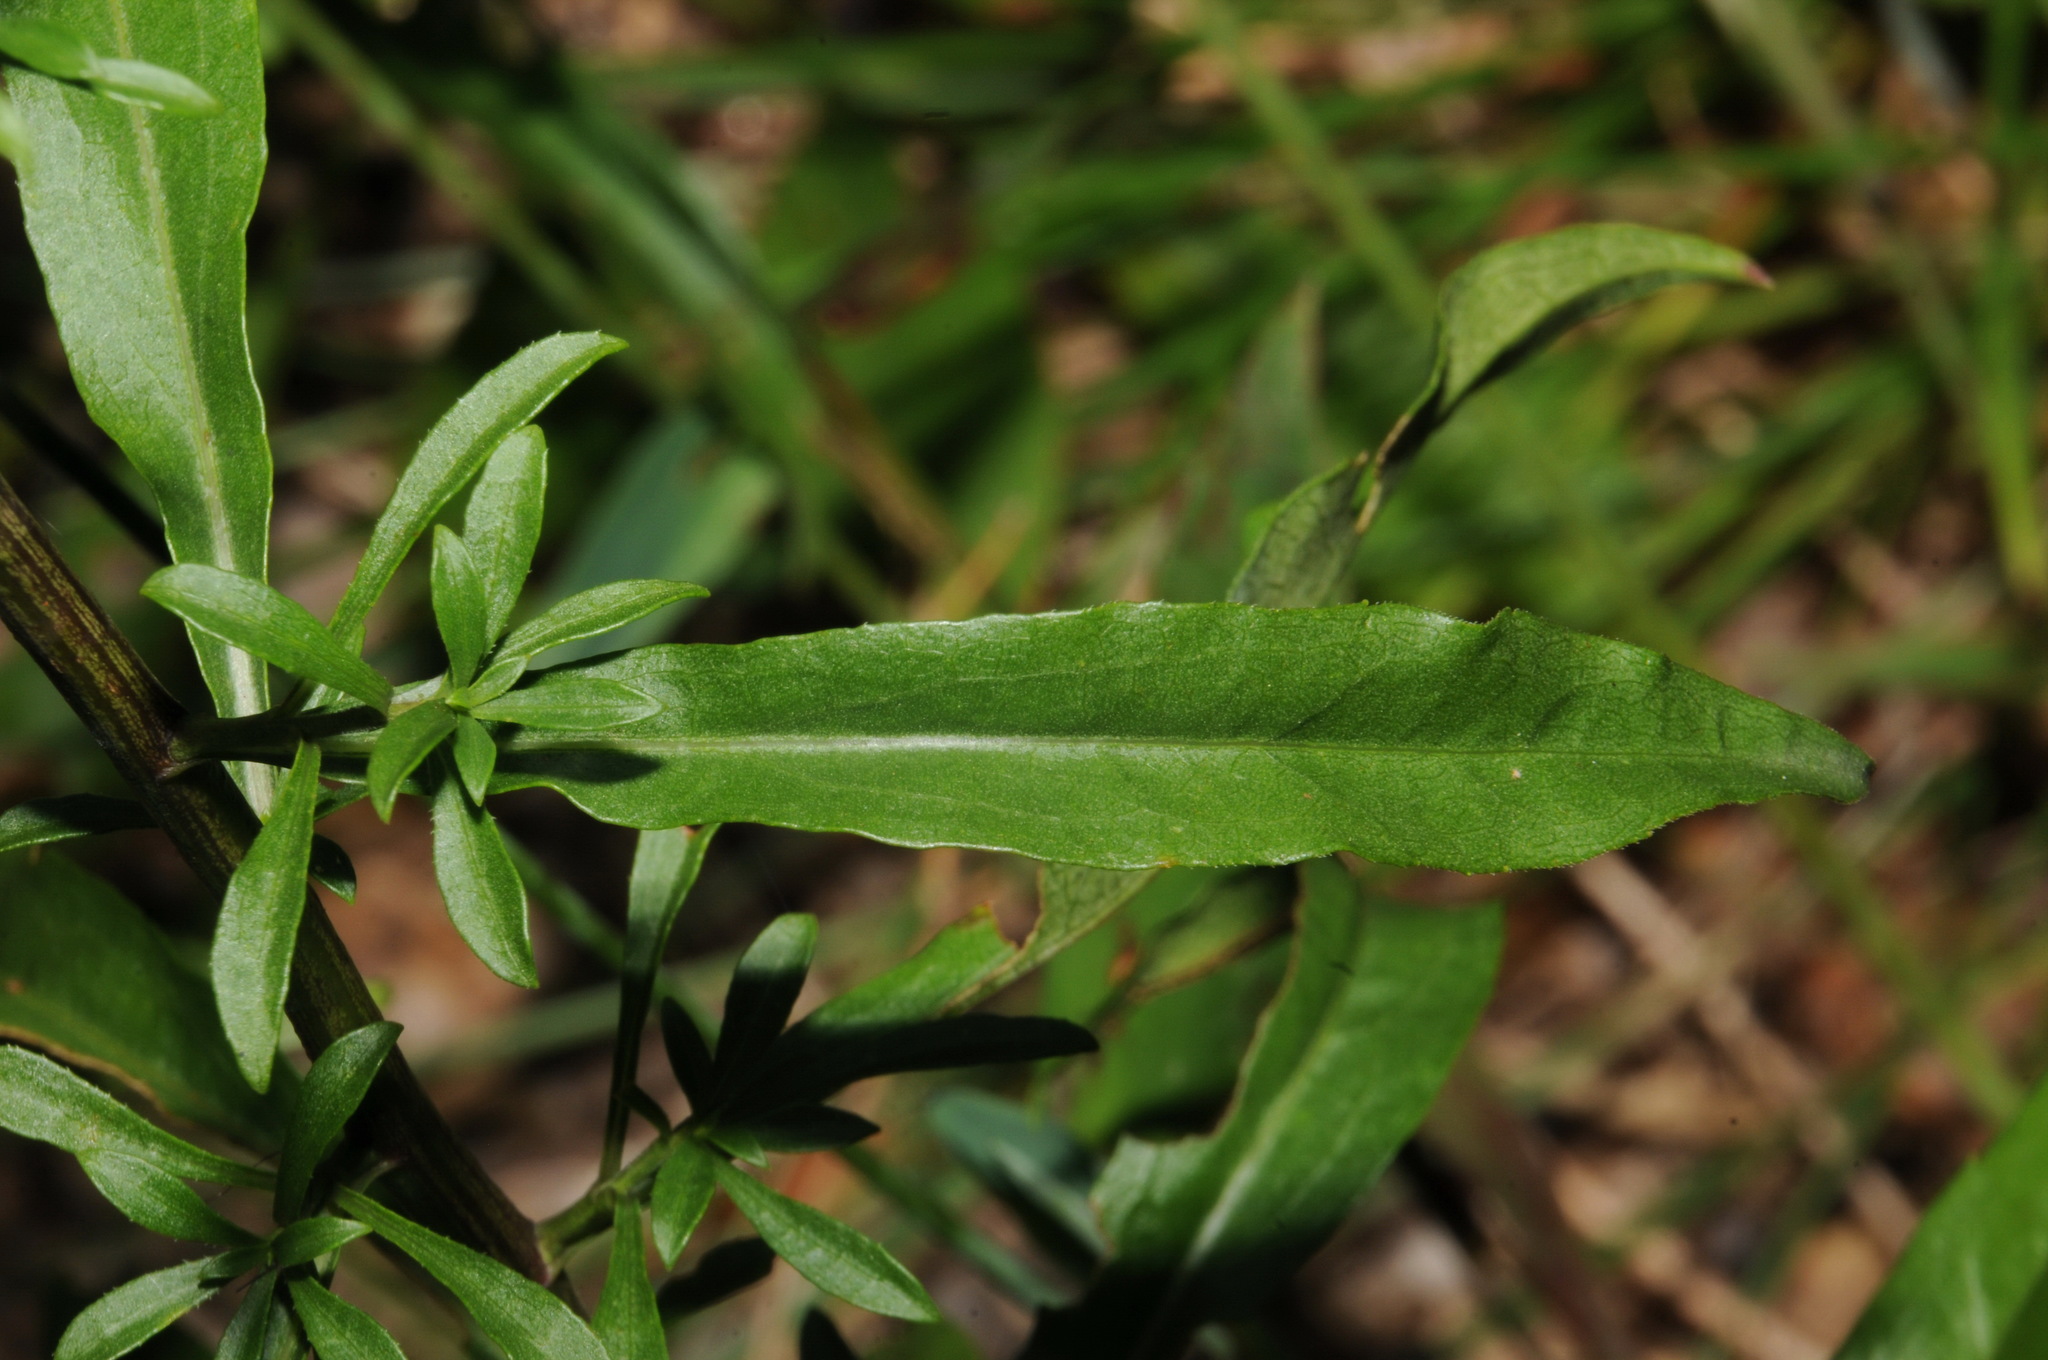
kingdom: Plantae
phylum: Tracheophyta
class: Magnoliopsida
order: Asterales
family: Asteraceae
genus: Solidago
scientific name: Solidago arenicola
